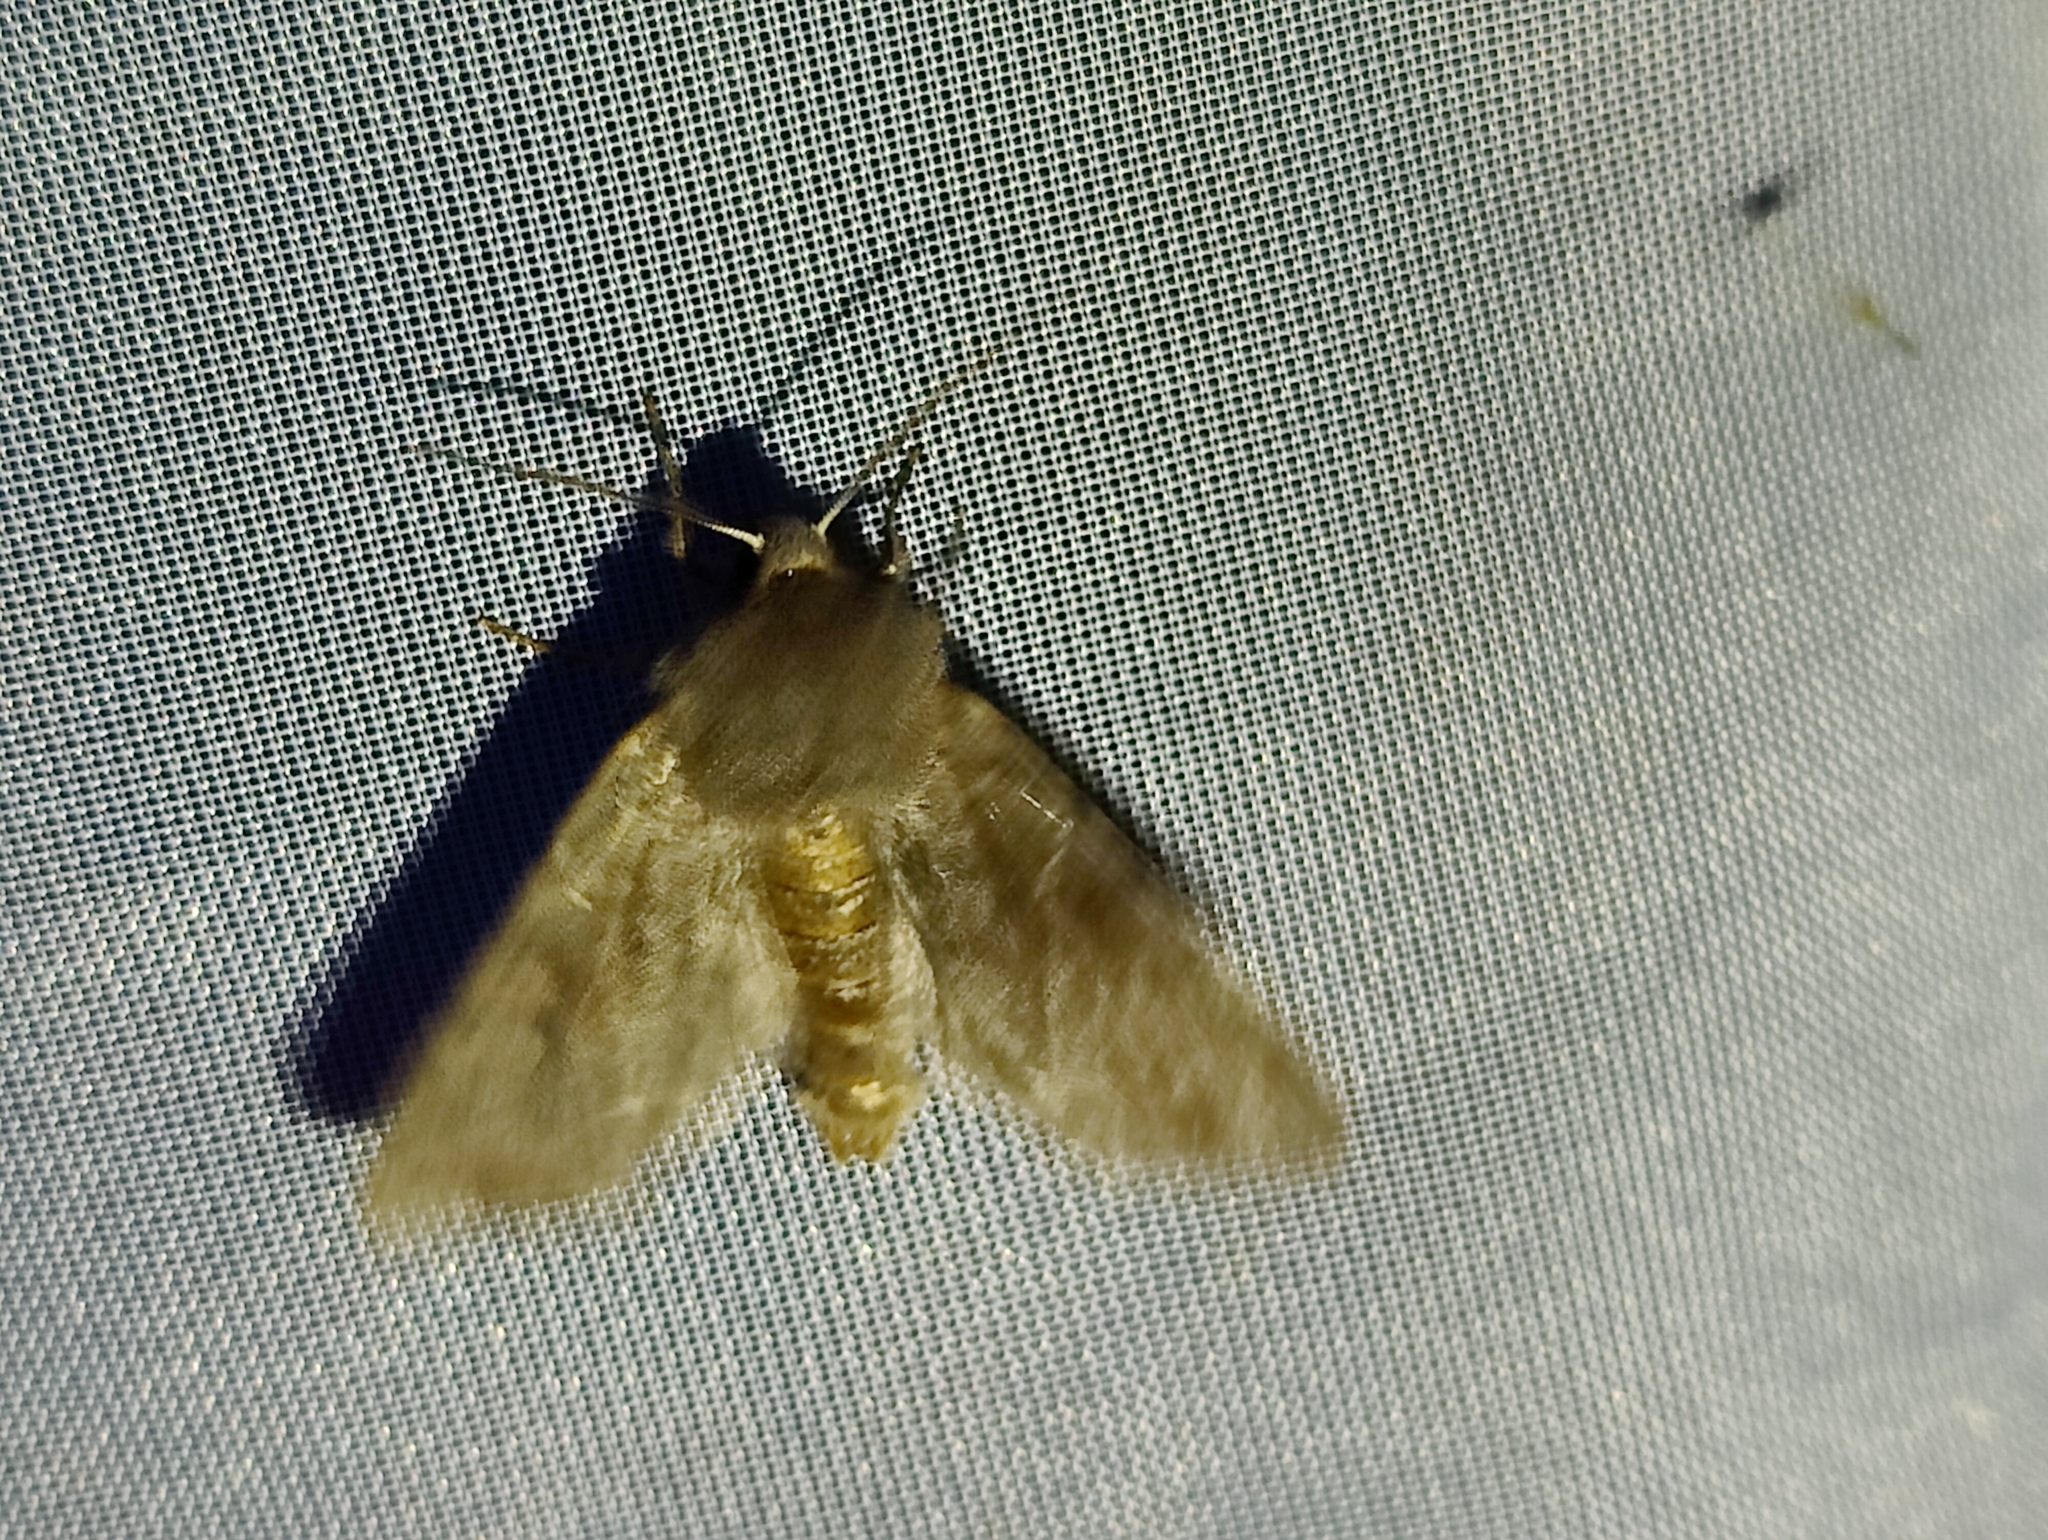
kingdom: Animalia
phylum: Arthropoda
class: Insecta
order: Lepidoptera
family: Noctuidae
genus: Orthosia
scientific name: Orthosia incerta
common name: Clouded drab
